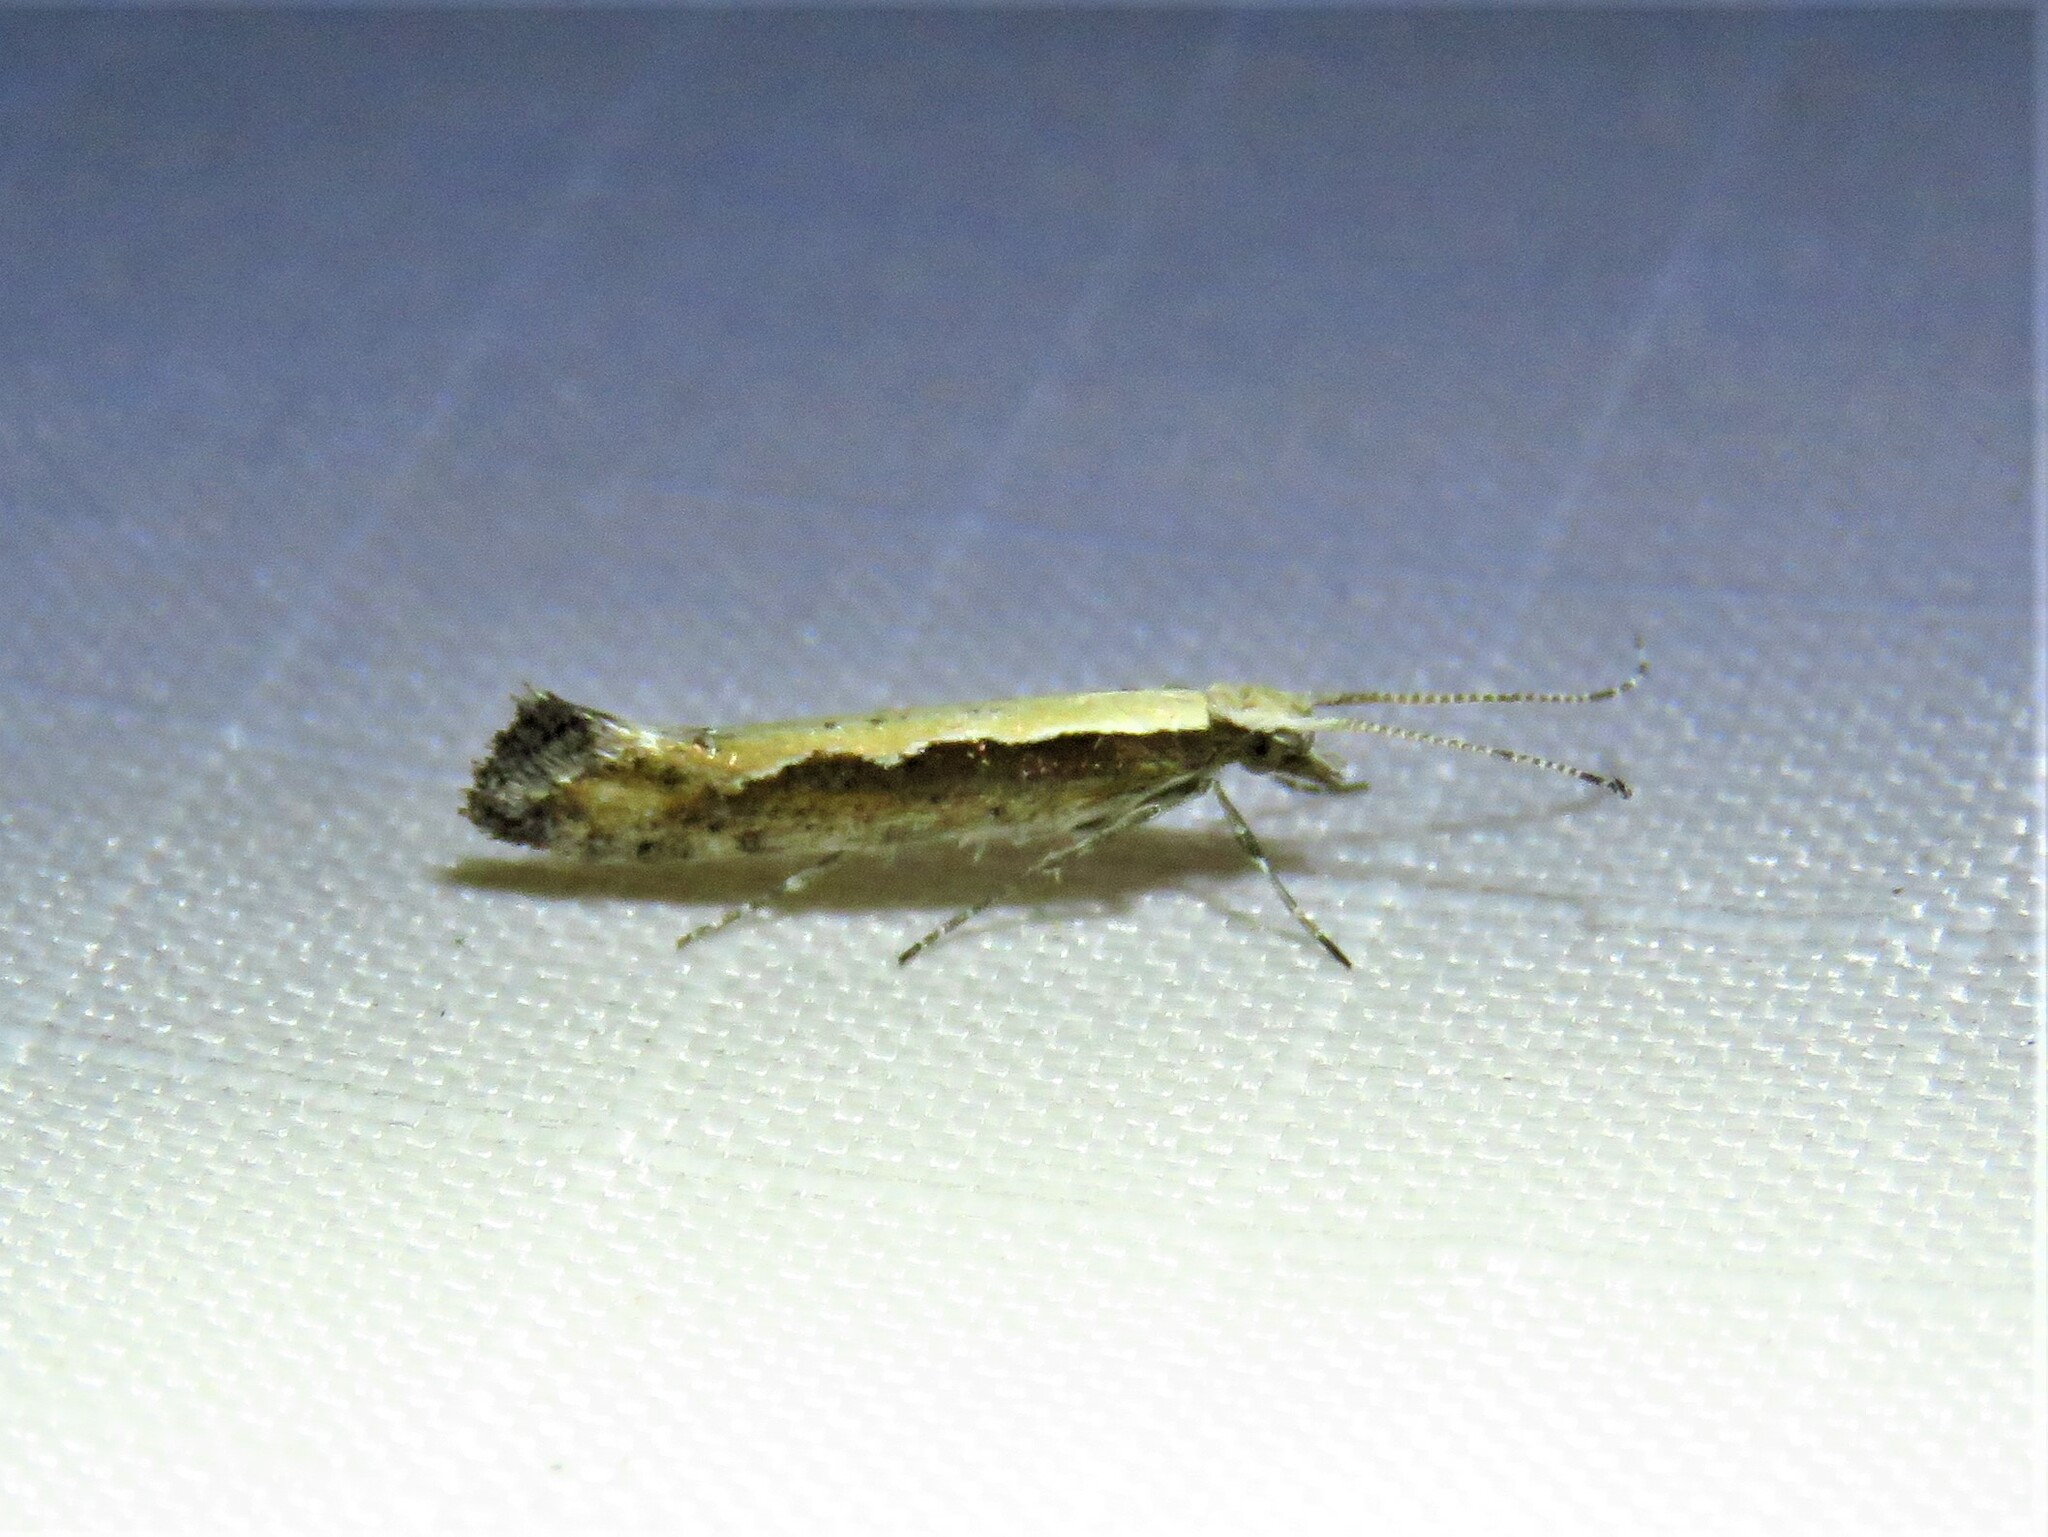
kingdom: Animalia
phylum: Arthropoda
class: Insecta
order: Lepidoptera
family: Plutellidae
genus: Plutella
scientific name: Plutella xylostella
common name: Diamond-back moth
